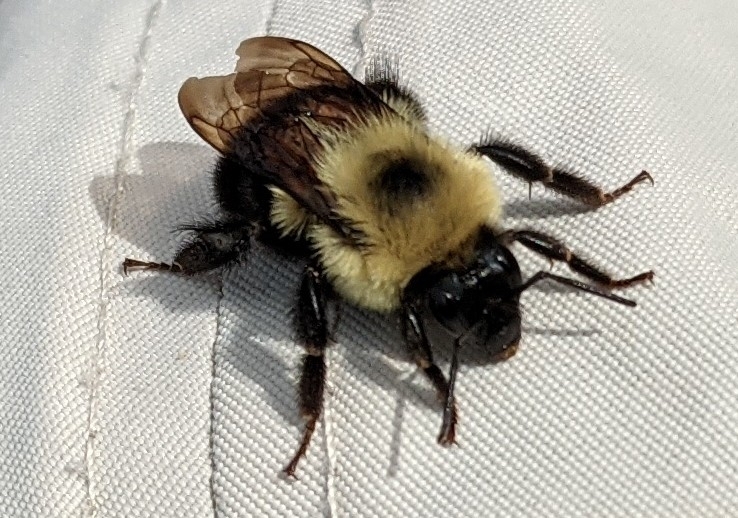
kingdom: Animalia
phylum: Arthropoda
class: Insecta
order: Hymenoptera
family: Apidae
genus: Bombus
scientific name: Bombus bimaculatus
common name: Two-spotted bumble bee
